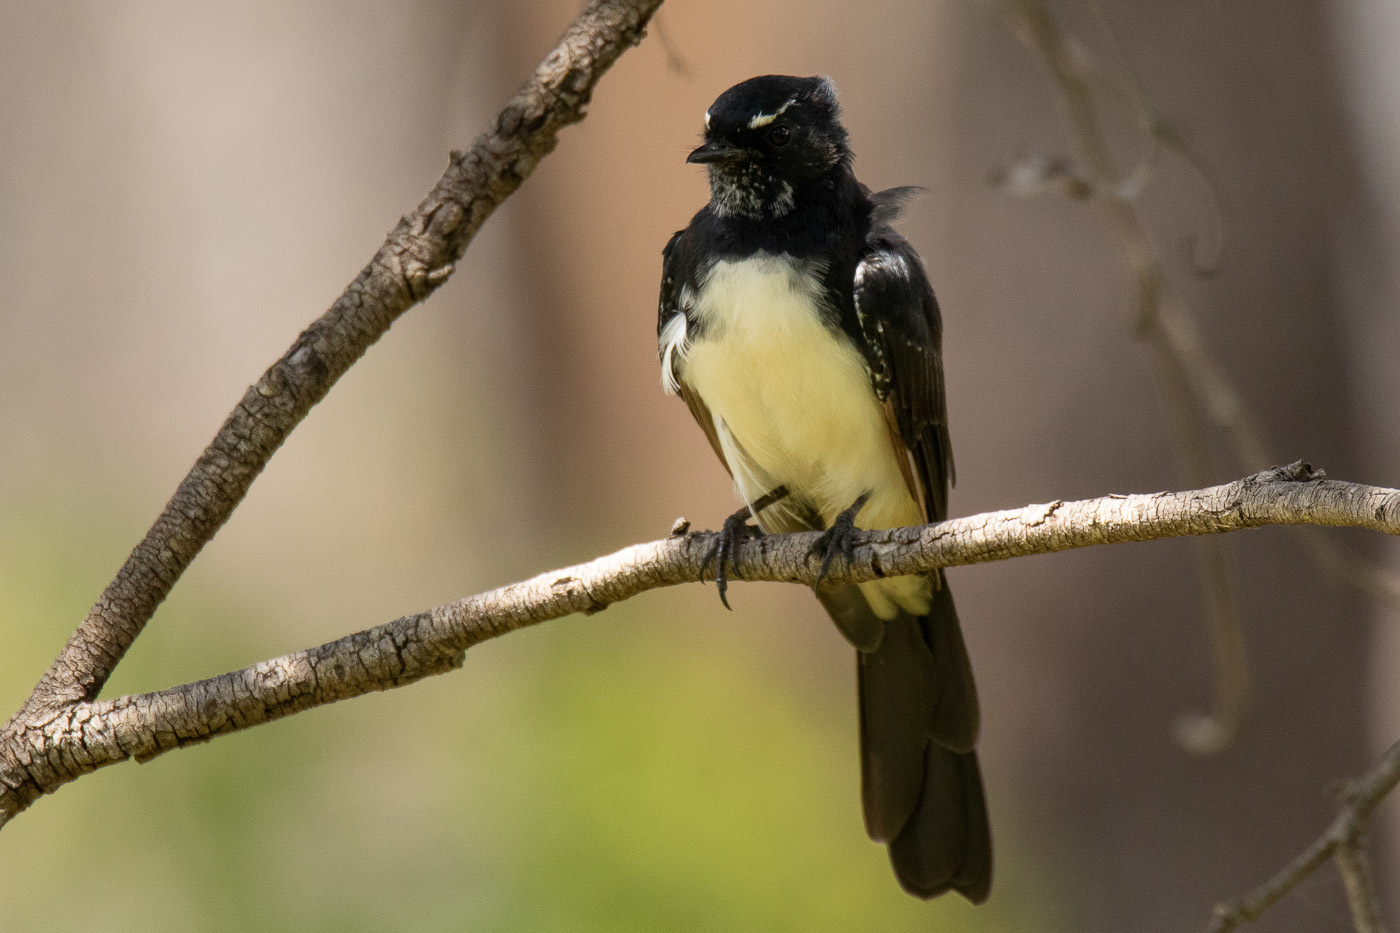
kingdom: Animalia
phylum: Chordata
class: Aves
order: Passeriformes
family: Rhipiduridae
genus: Rhipidura
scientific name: Rhipidura leucophrys
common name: Willie wagtail
